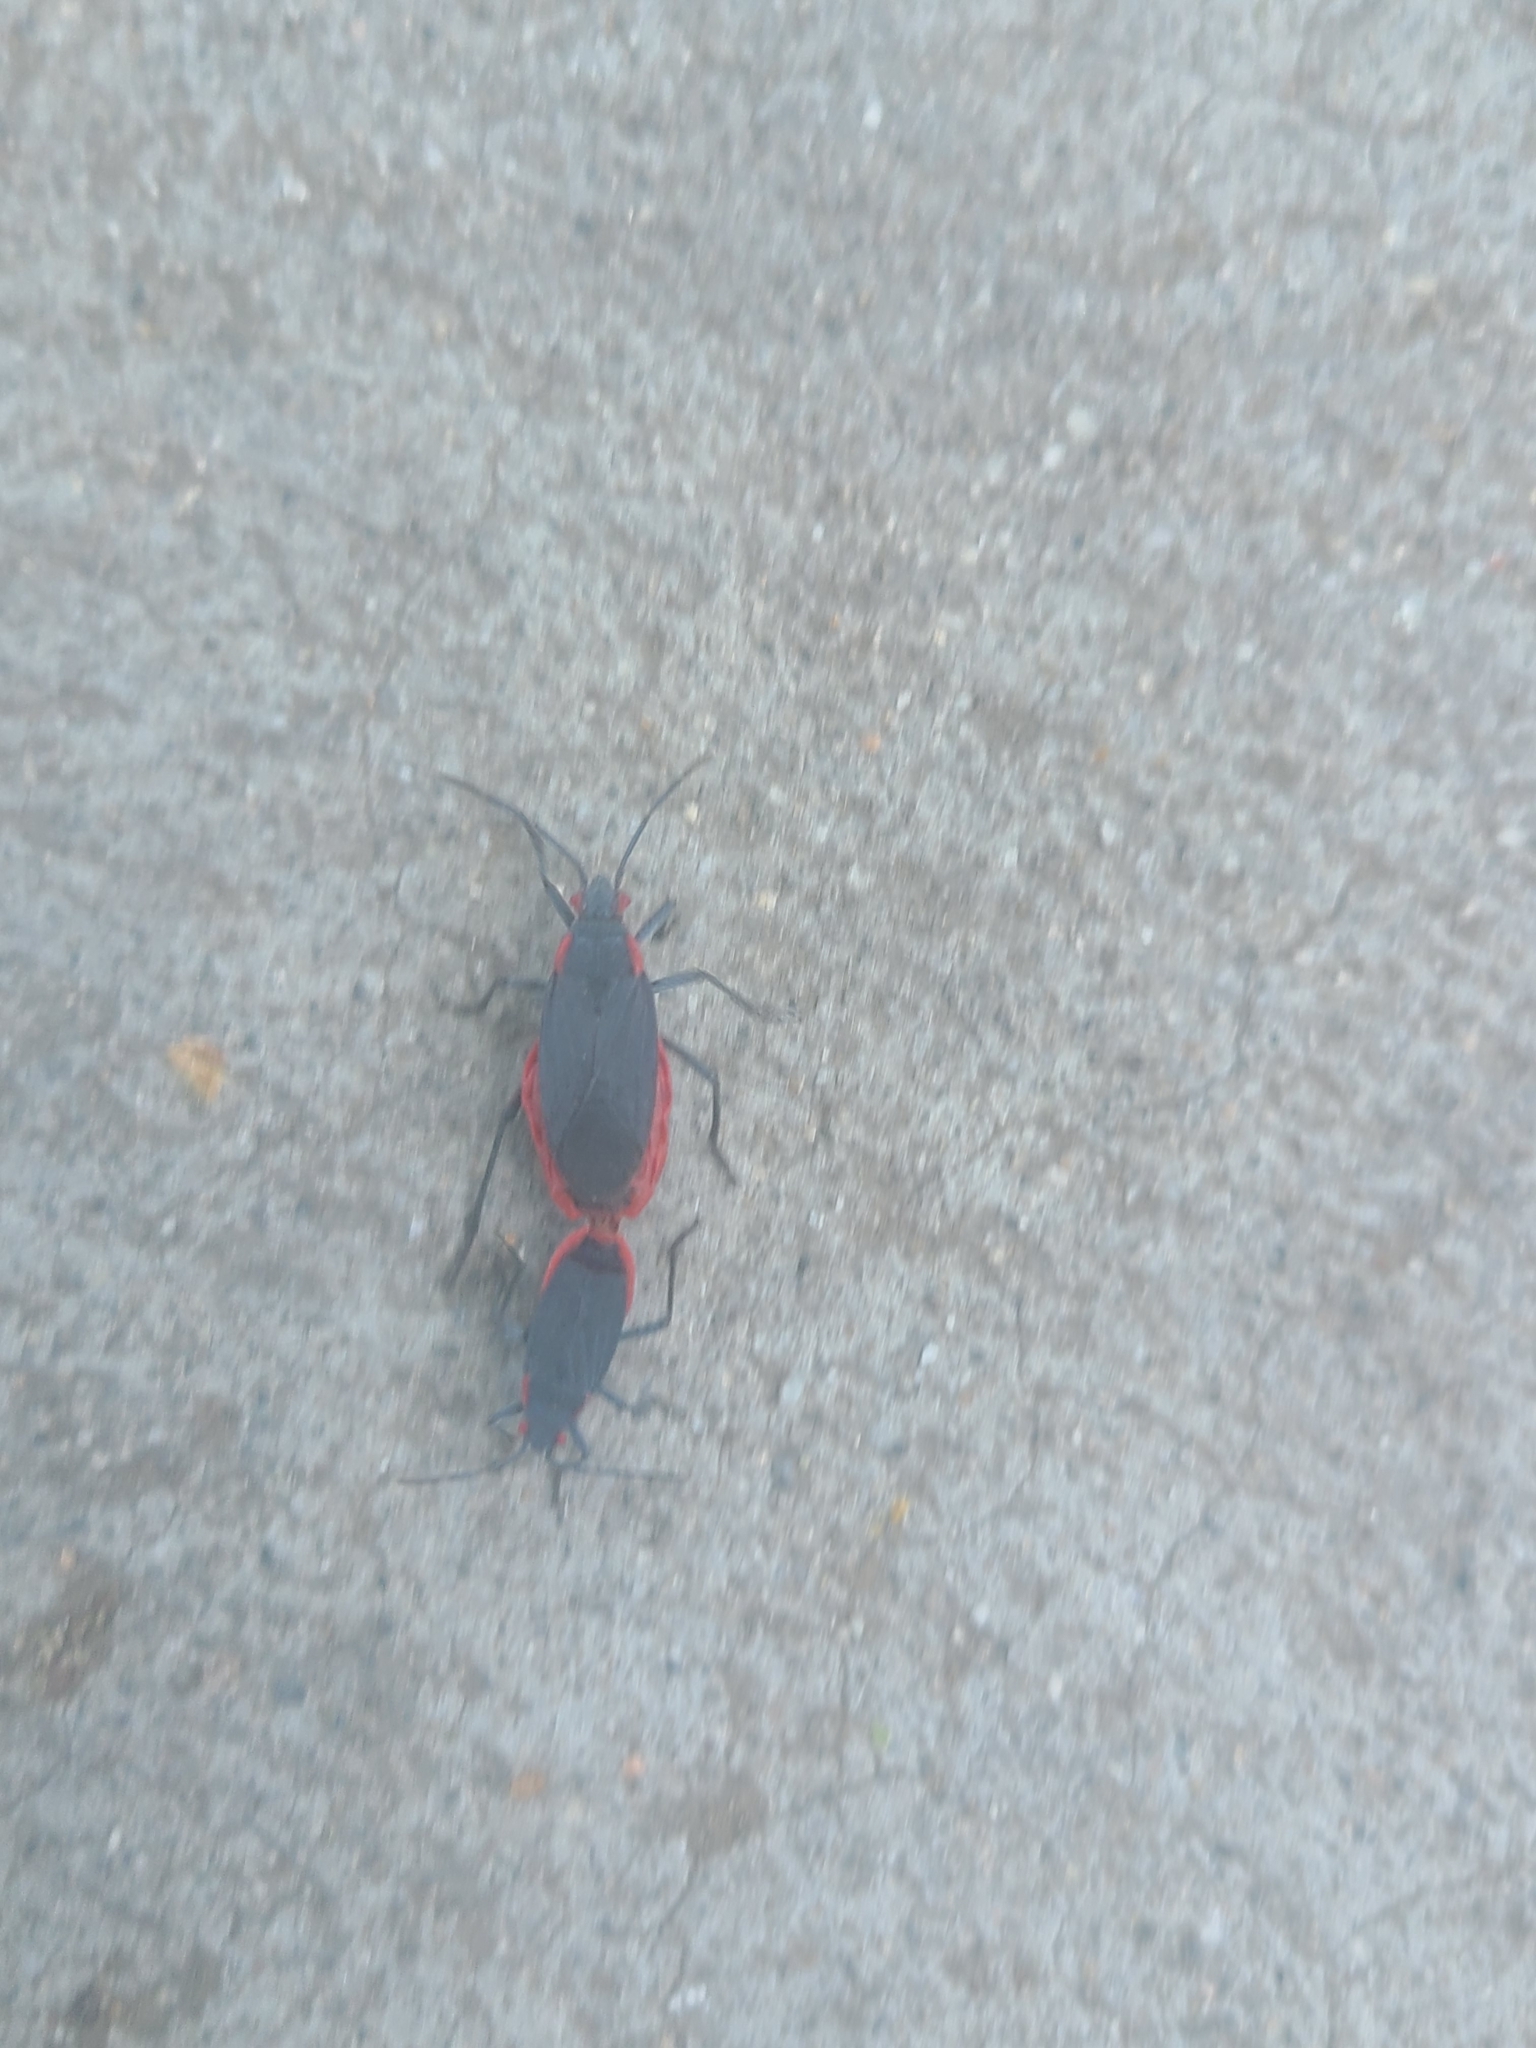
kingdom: Animalia
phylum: Arthropoda
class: Insecta
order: Hemiptera
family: Rhopalidae
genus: Jadera
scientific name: Jadera haematoloma
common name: Red-shouldered bug
